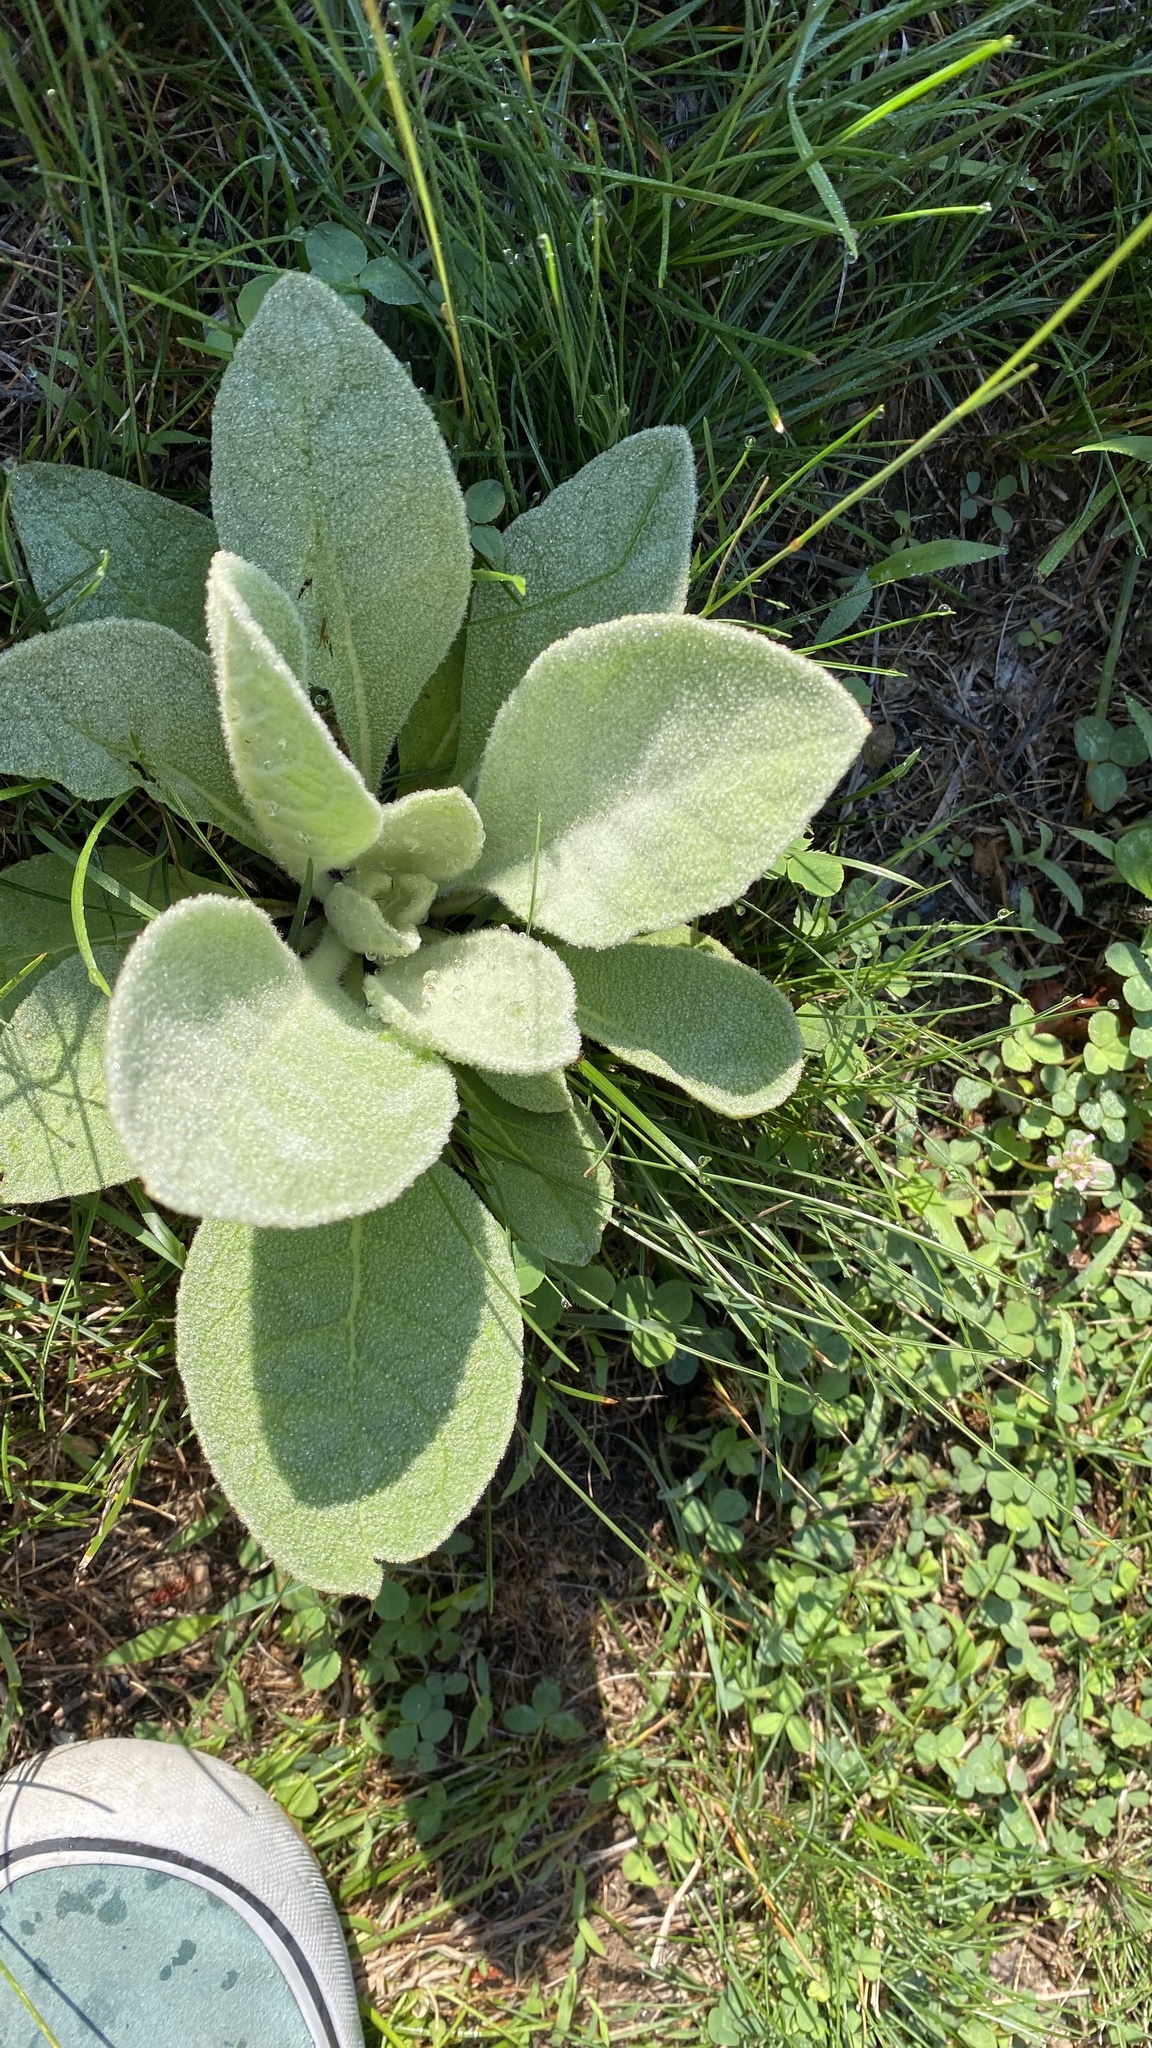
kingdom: Plantae
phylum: Tracheophyta
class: Magnoliopsida
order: Lamiales
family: Scrophulariaceae
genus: Verbascum
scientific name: Verbascum thapsus
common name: Common mullein
